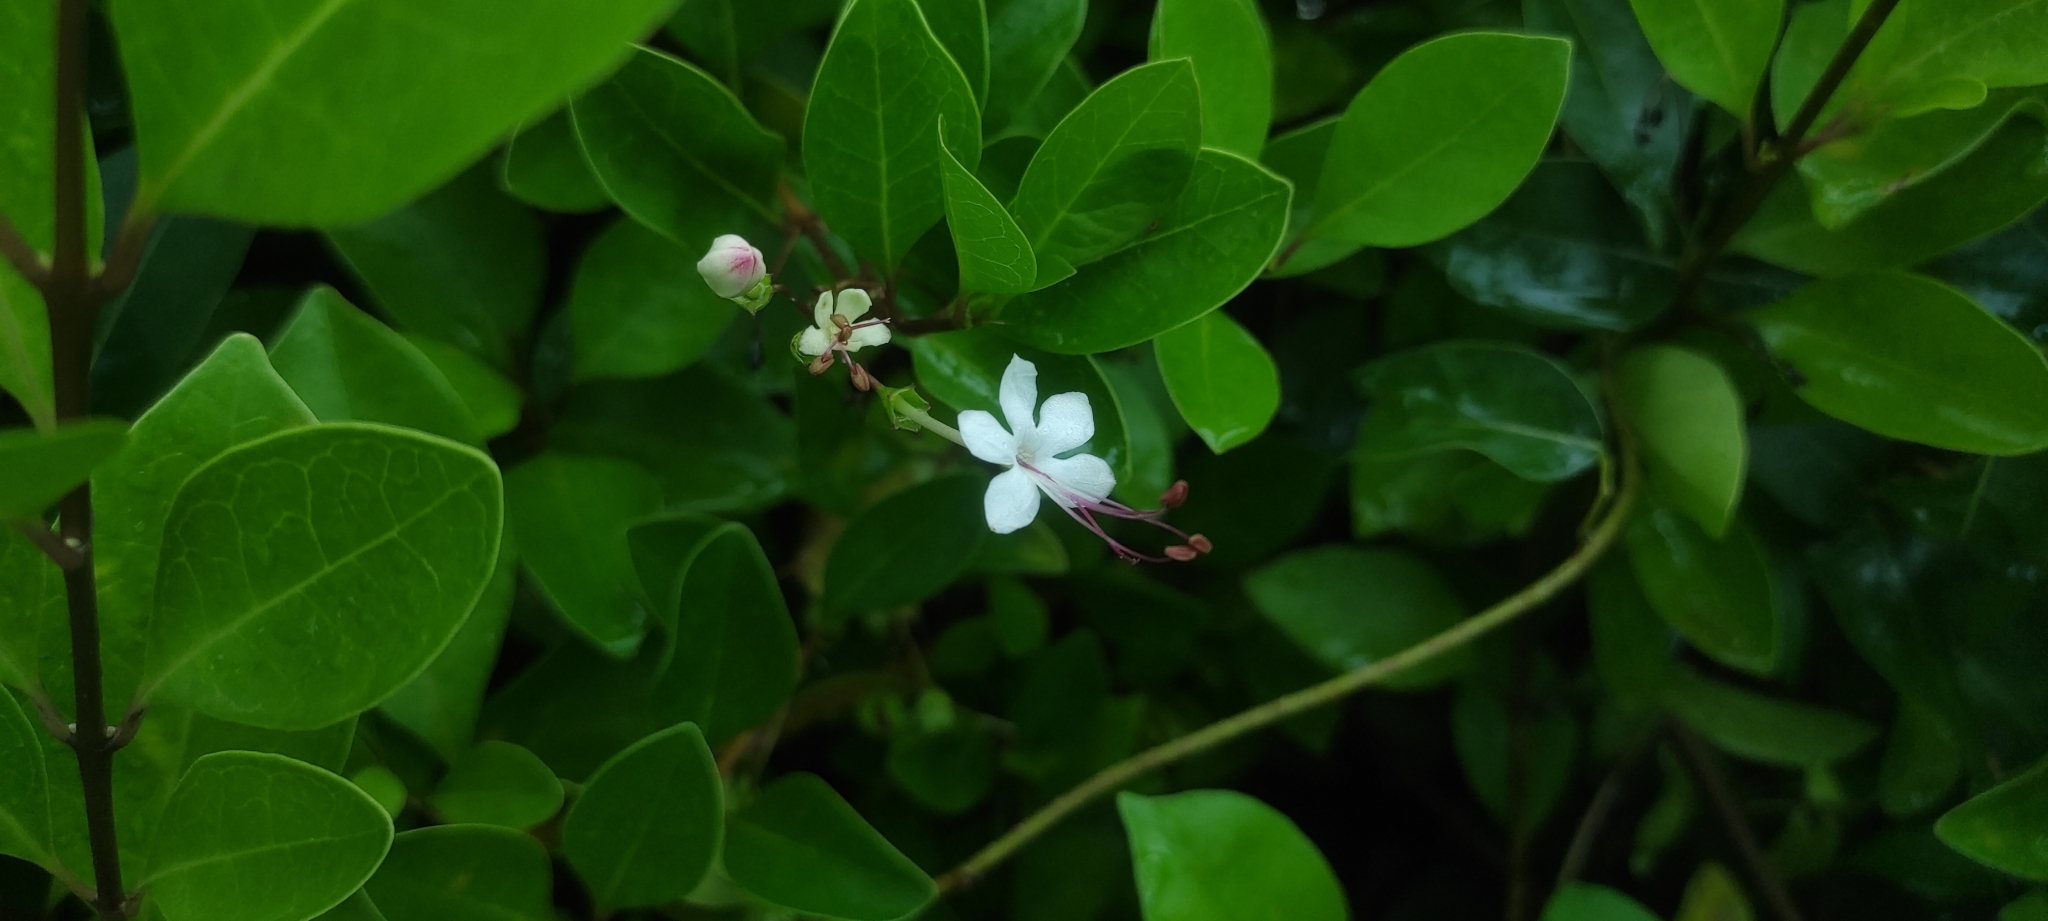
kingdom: Plantae
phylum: Tracheophyta
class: Magnoliopsida
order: Lamiales
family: Lamiaceae
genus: Volkameria
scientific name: Volkameria inermis
